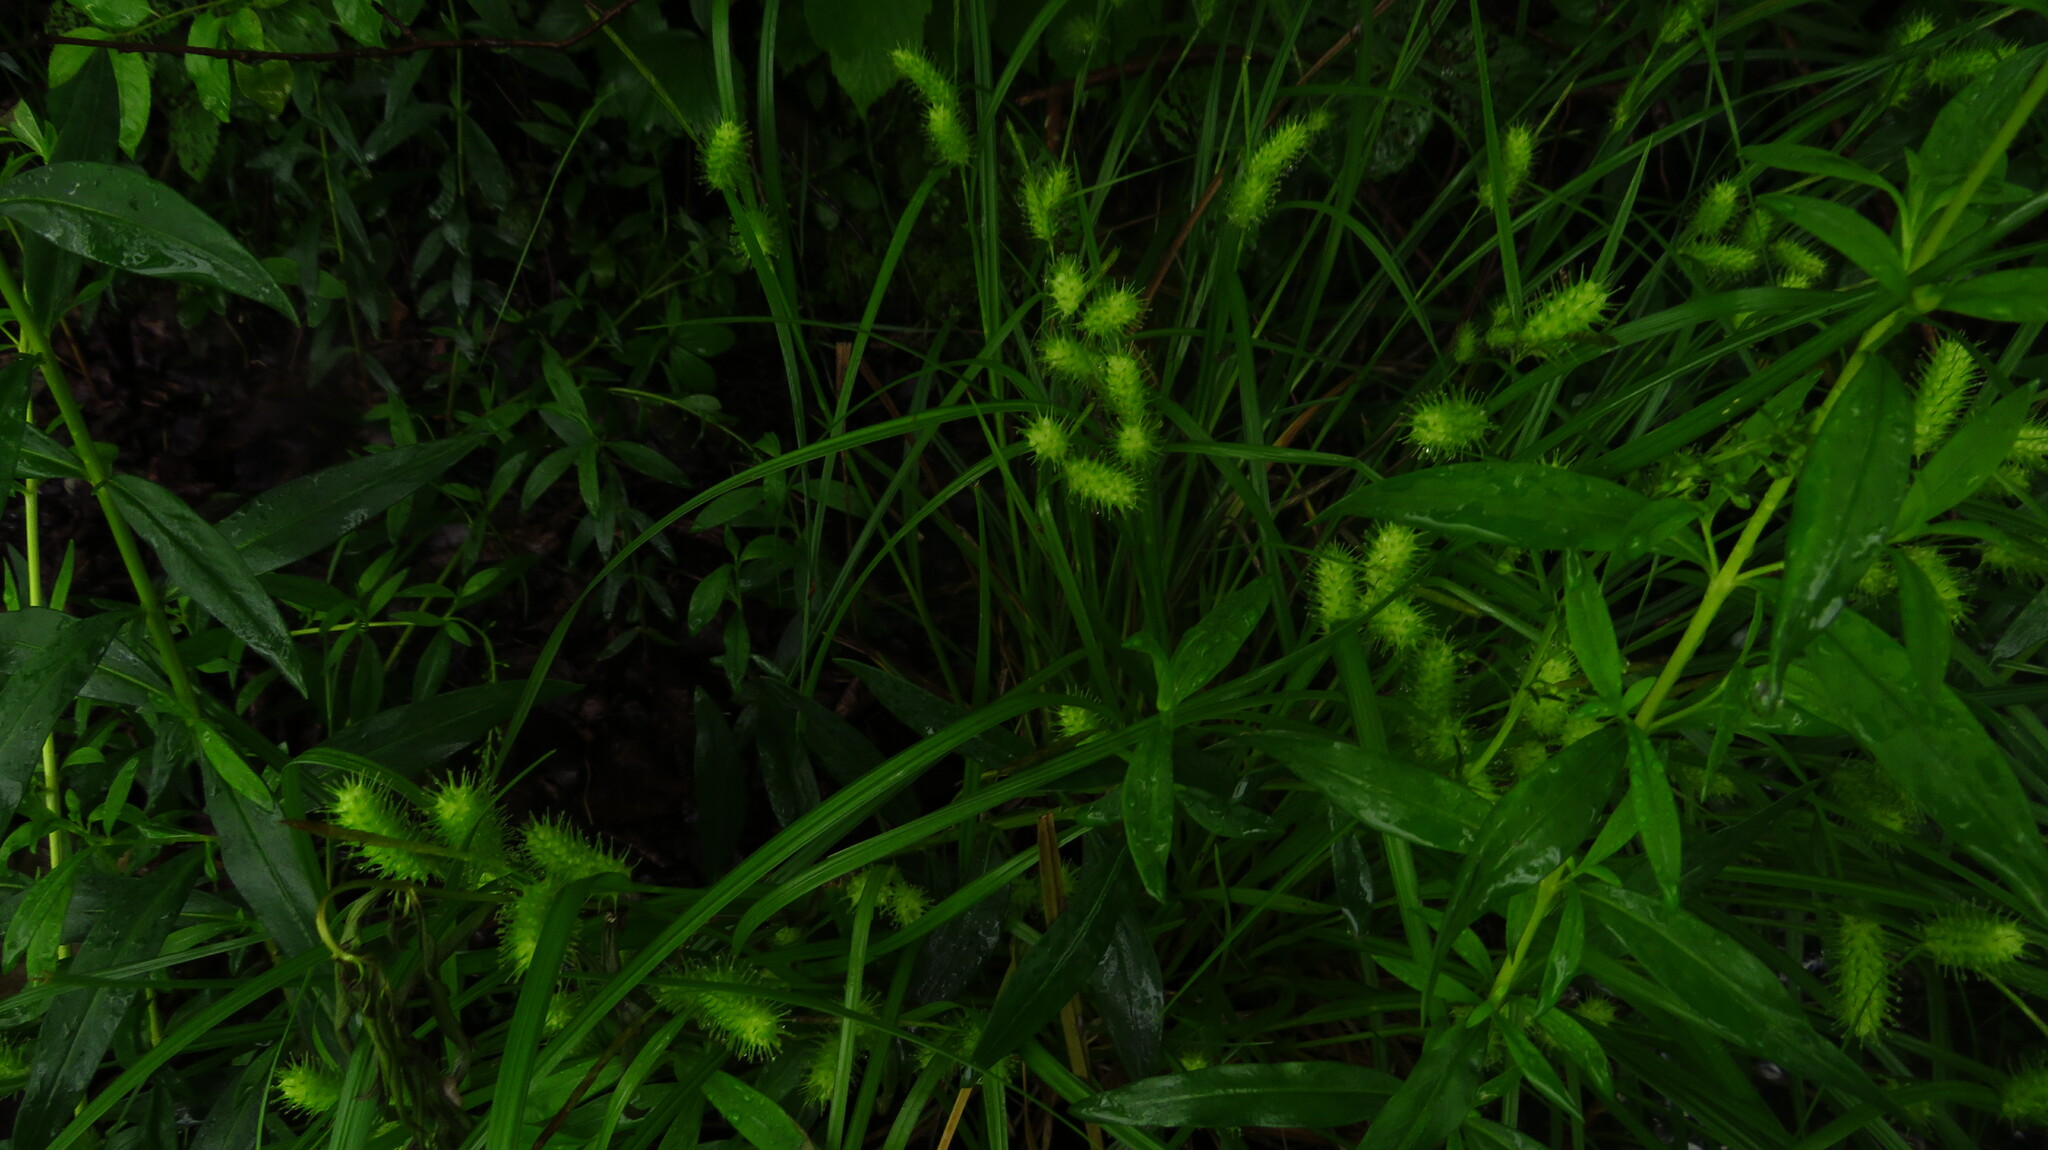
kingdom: Plantae
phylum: Tracheophyta
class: Liliopsida
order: Poales
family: Cyperaceae
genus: Carex
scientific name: Carex lurida
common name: Sallow sedge
